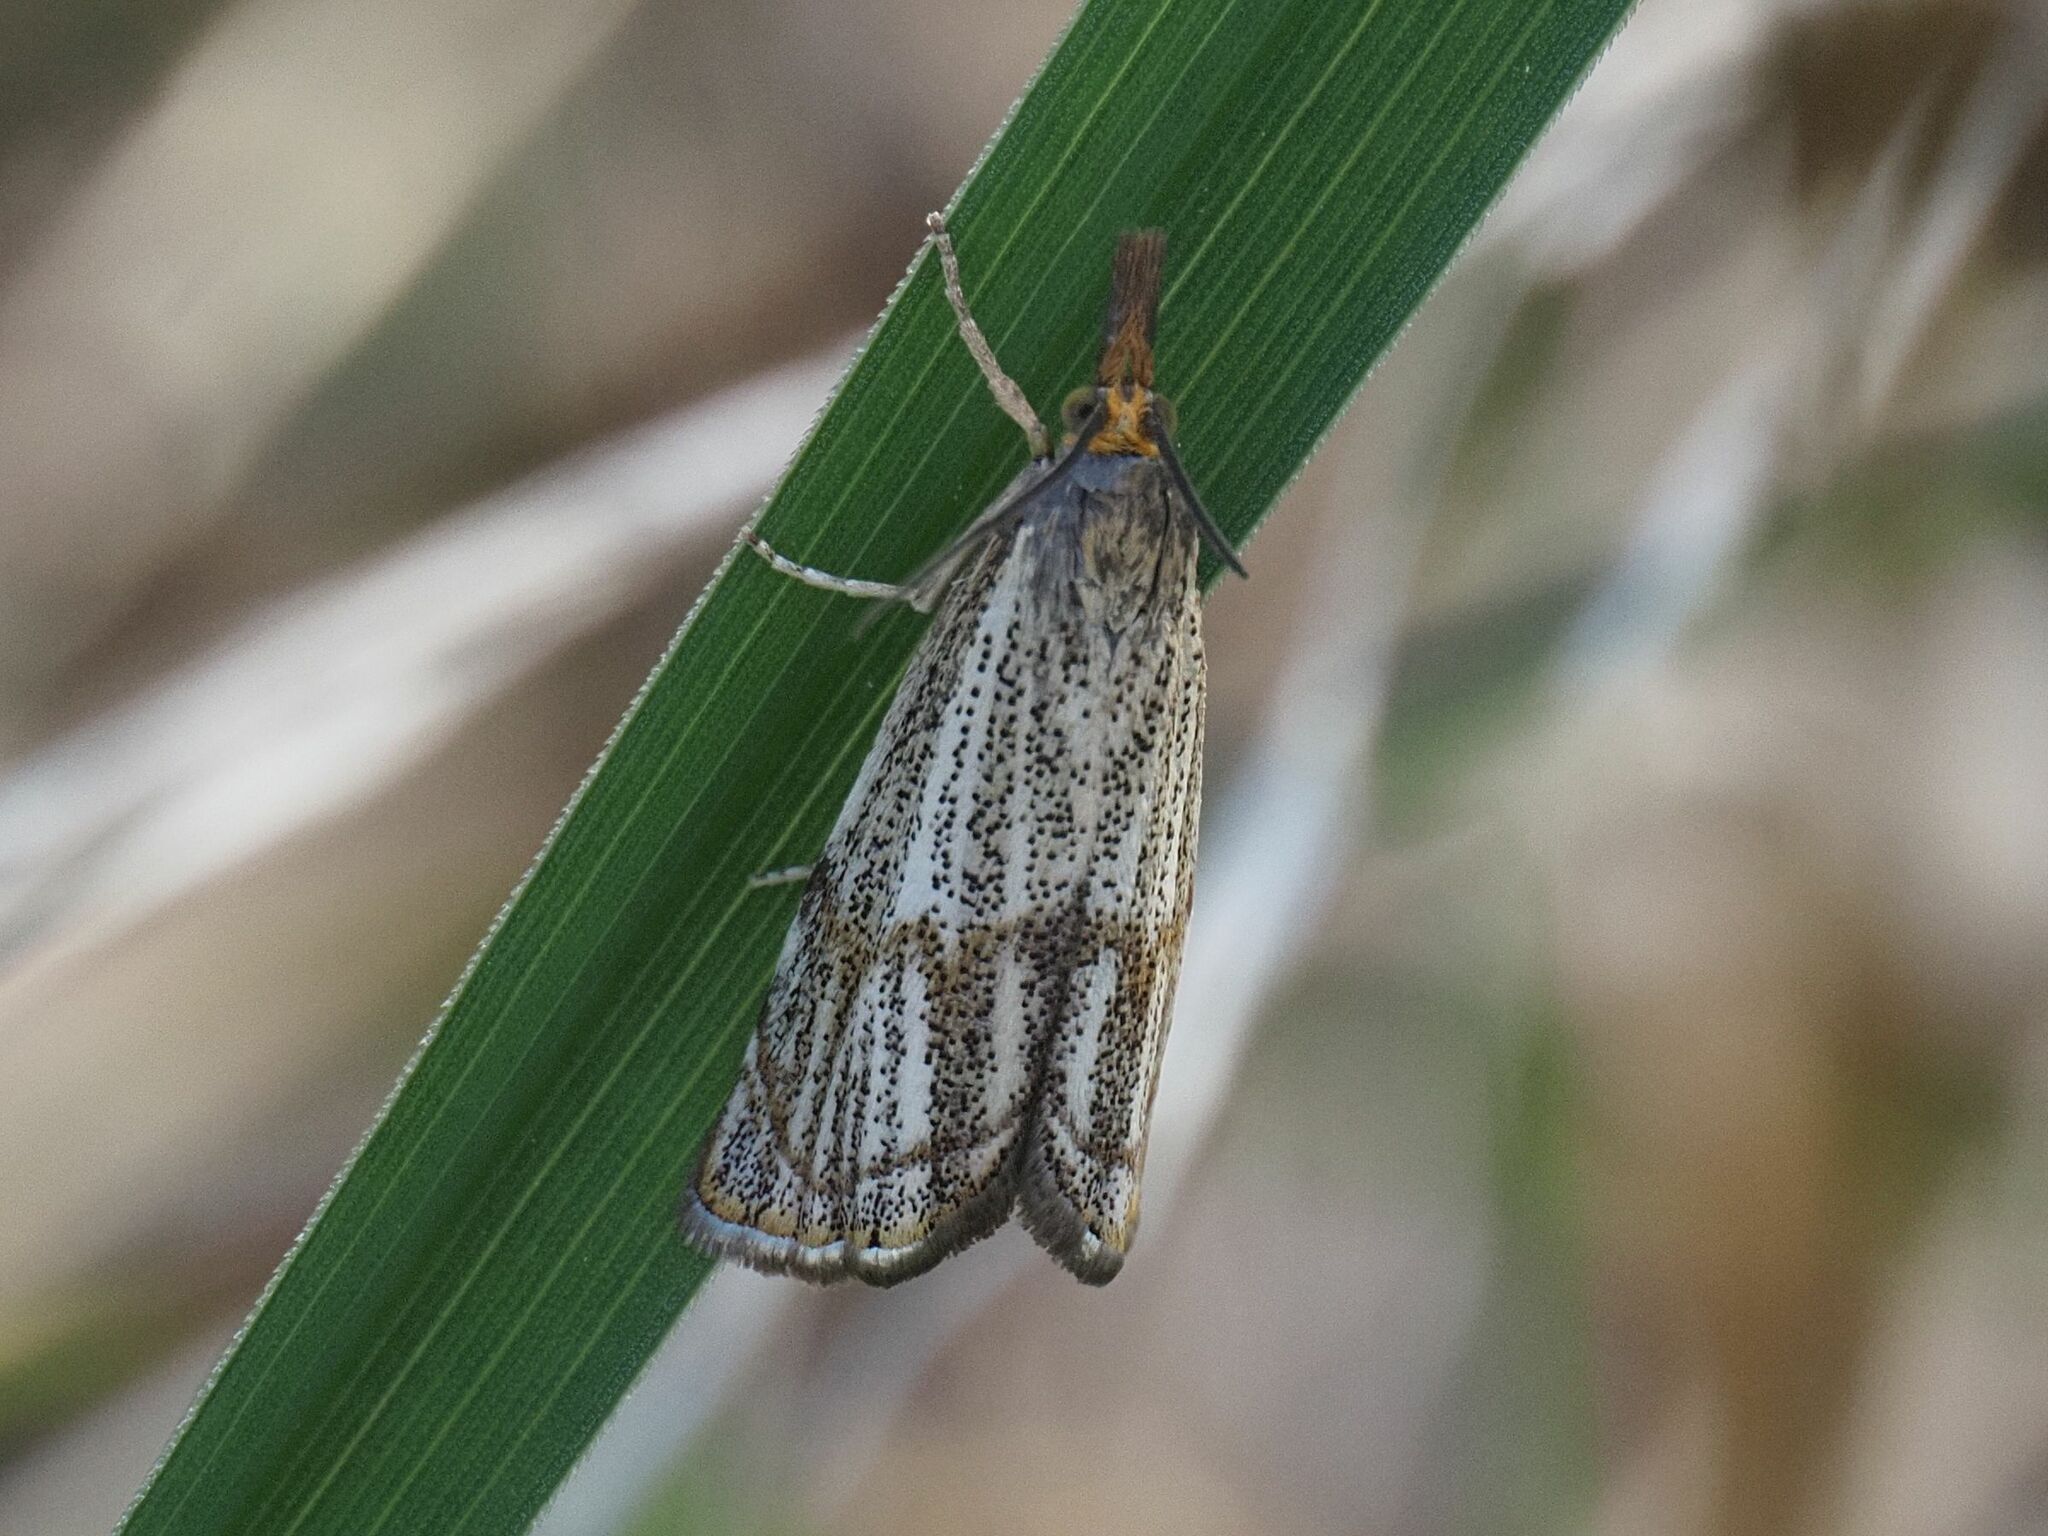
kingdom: Animalia
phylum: Arthropoda
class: Insecta
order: Lepidoptera
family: Crambidae
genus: Thisanotia
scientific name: Thisanotia chrysonuchella
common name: Powdered grass-veneer
